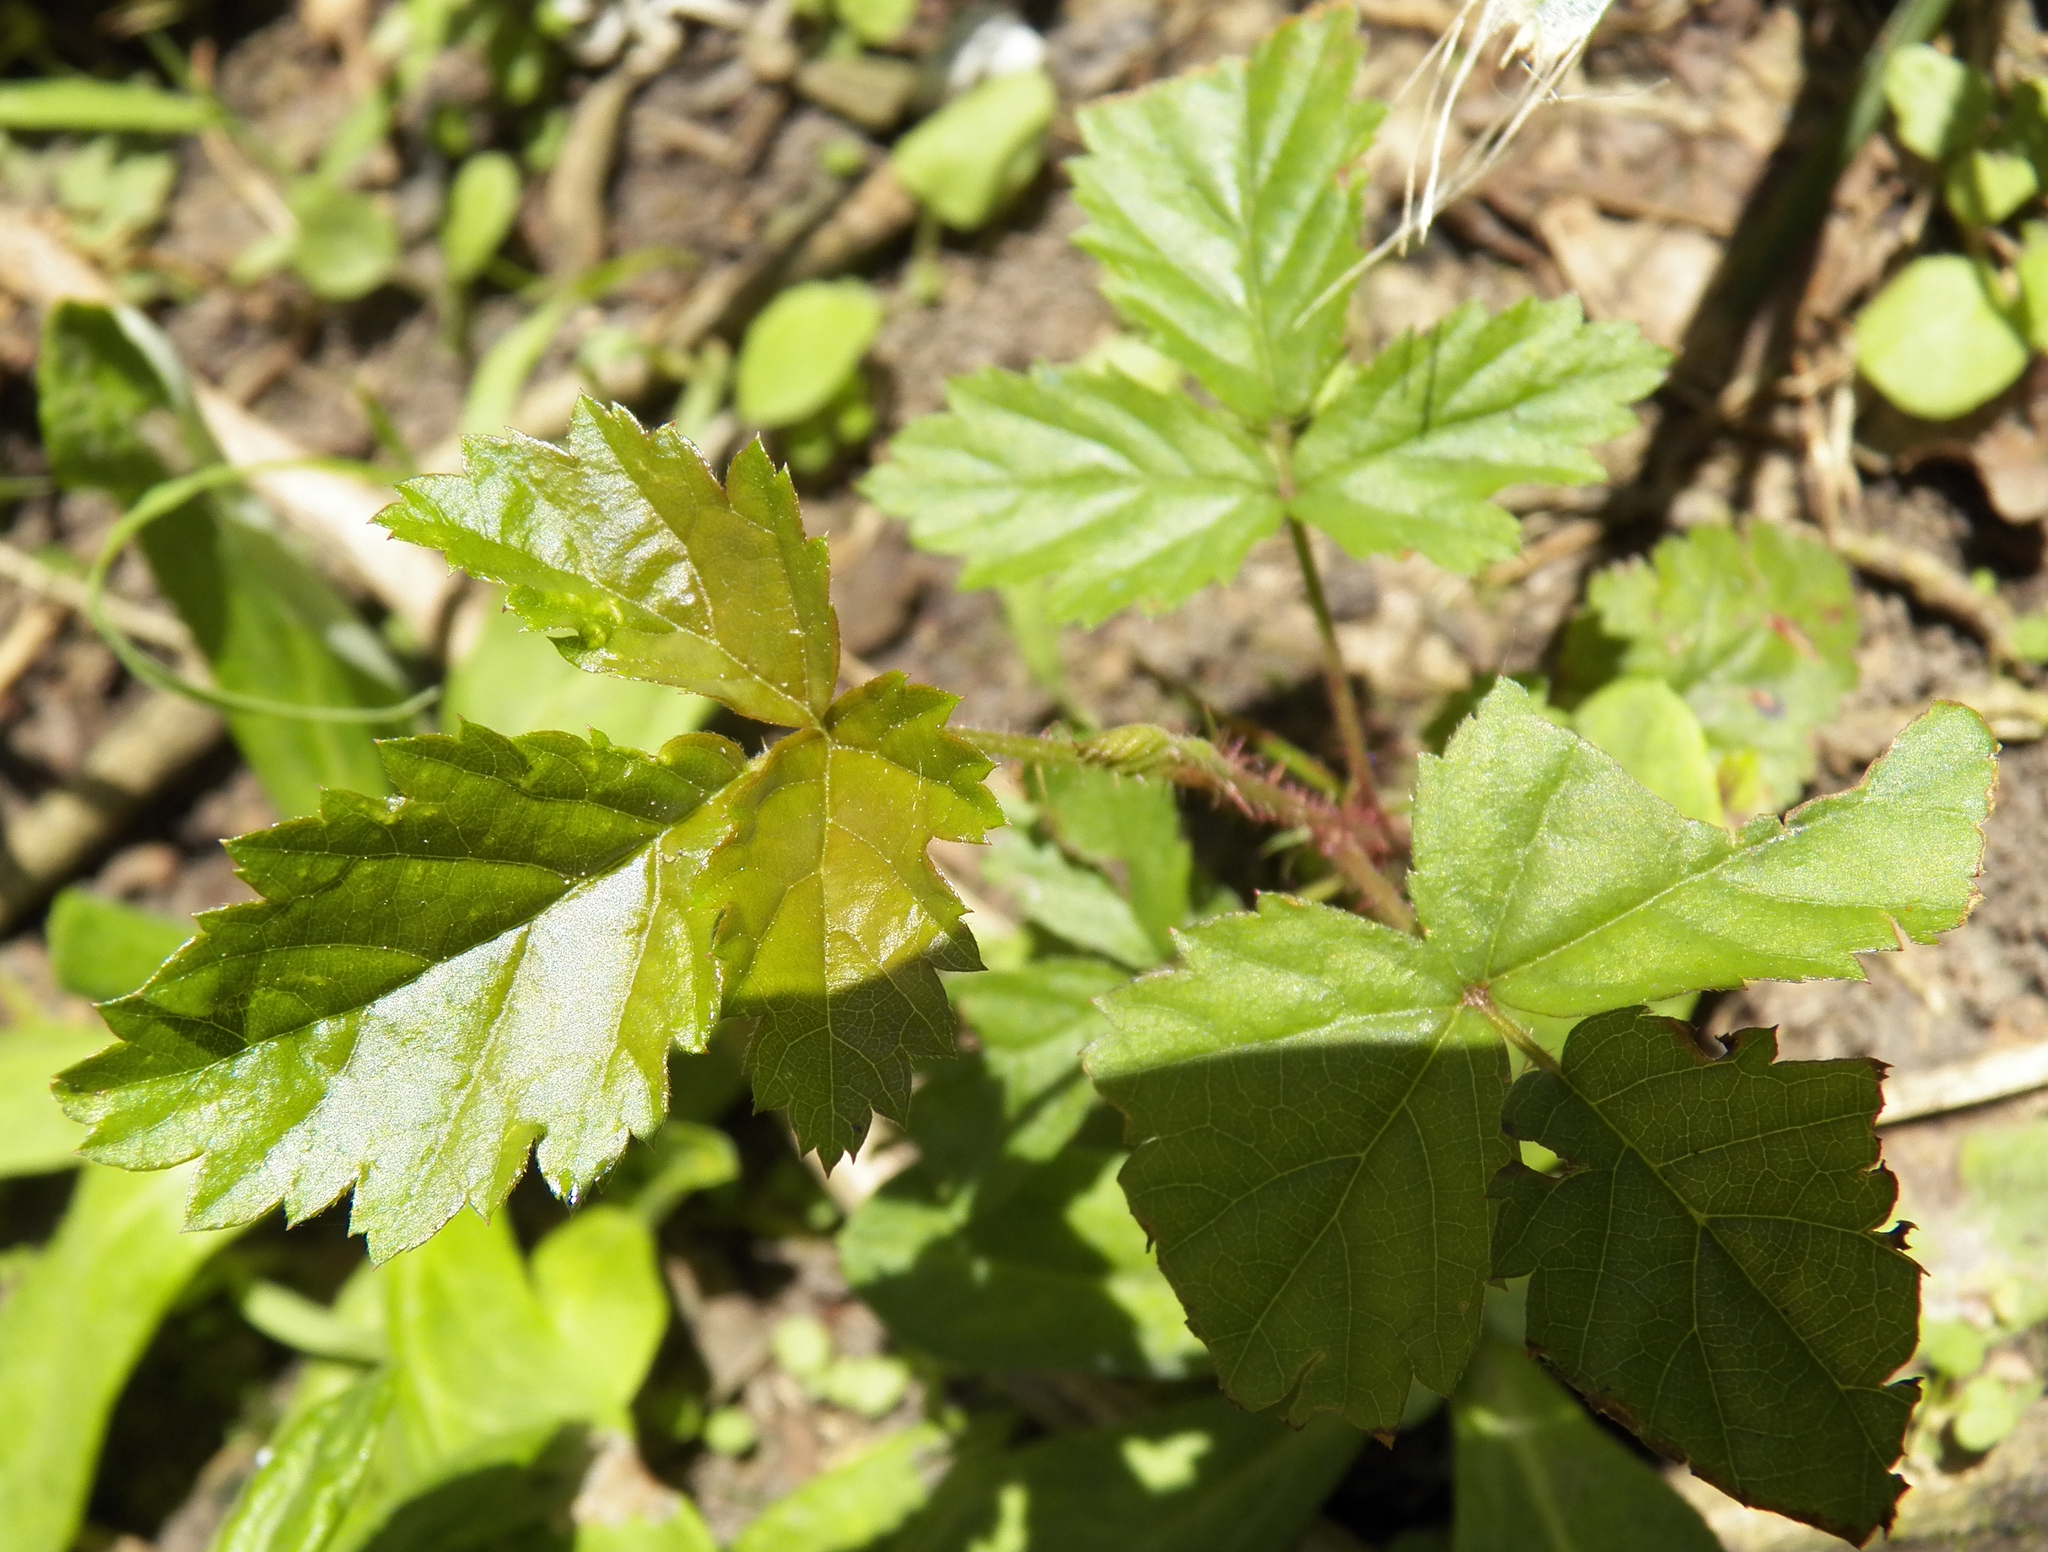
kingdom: Plantae
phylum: Tracheophyta
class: Magnoliopsida
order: Rosales
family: Rosaceae
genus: Rubus
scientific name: Rubus trivialis
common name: Southern dewberry
